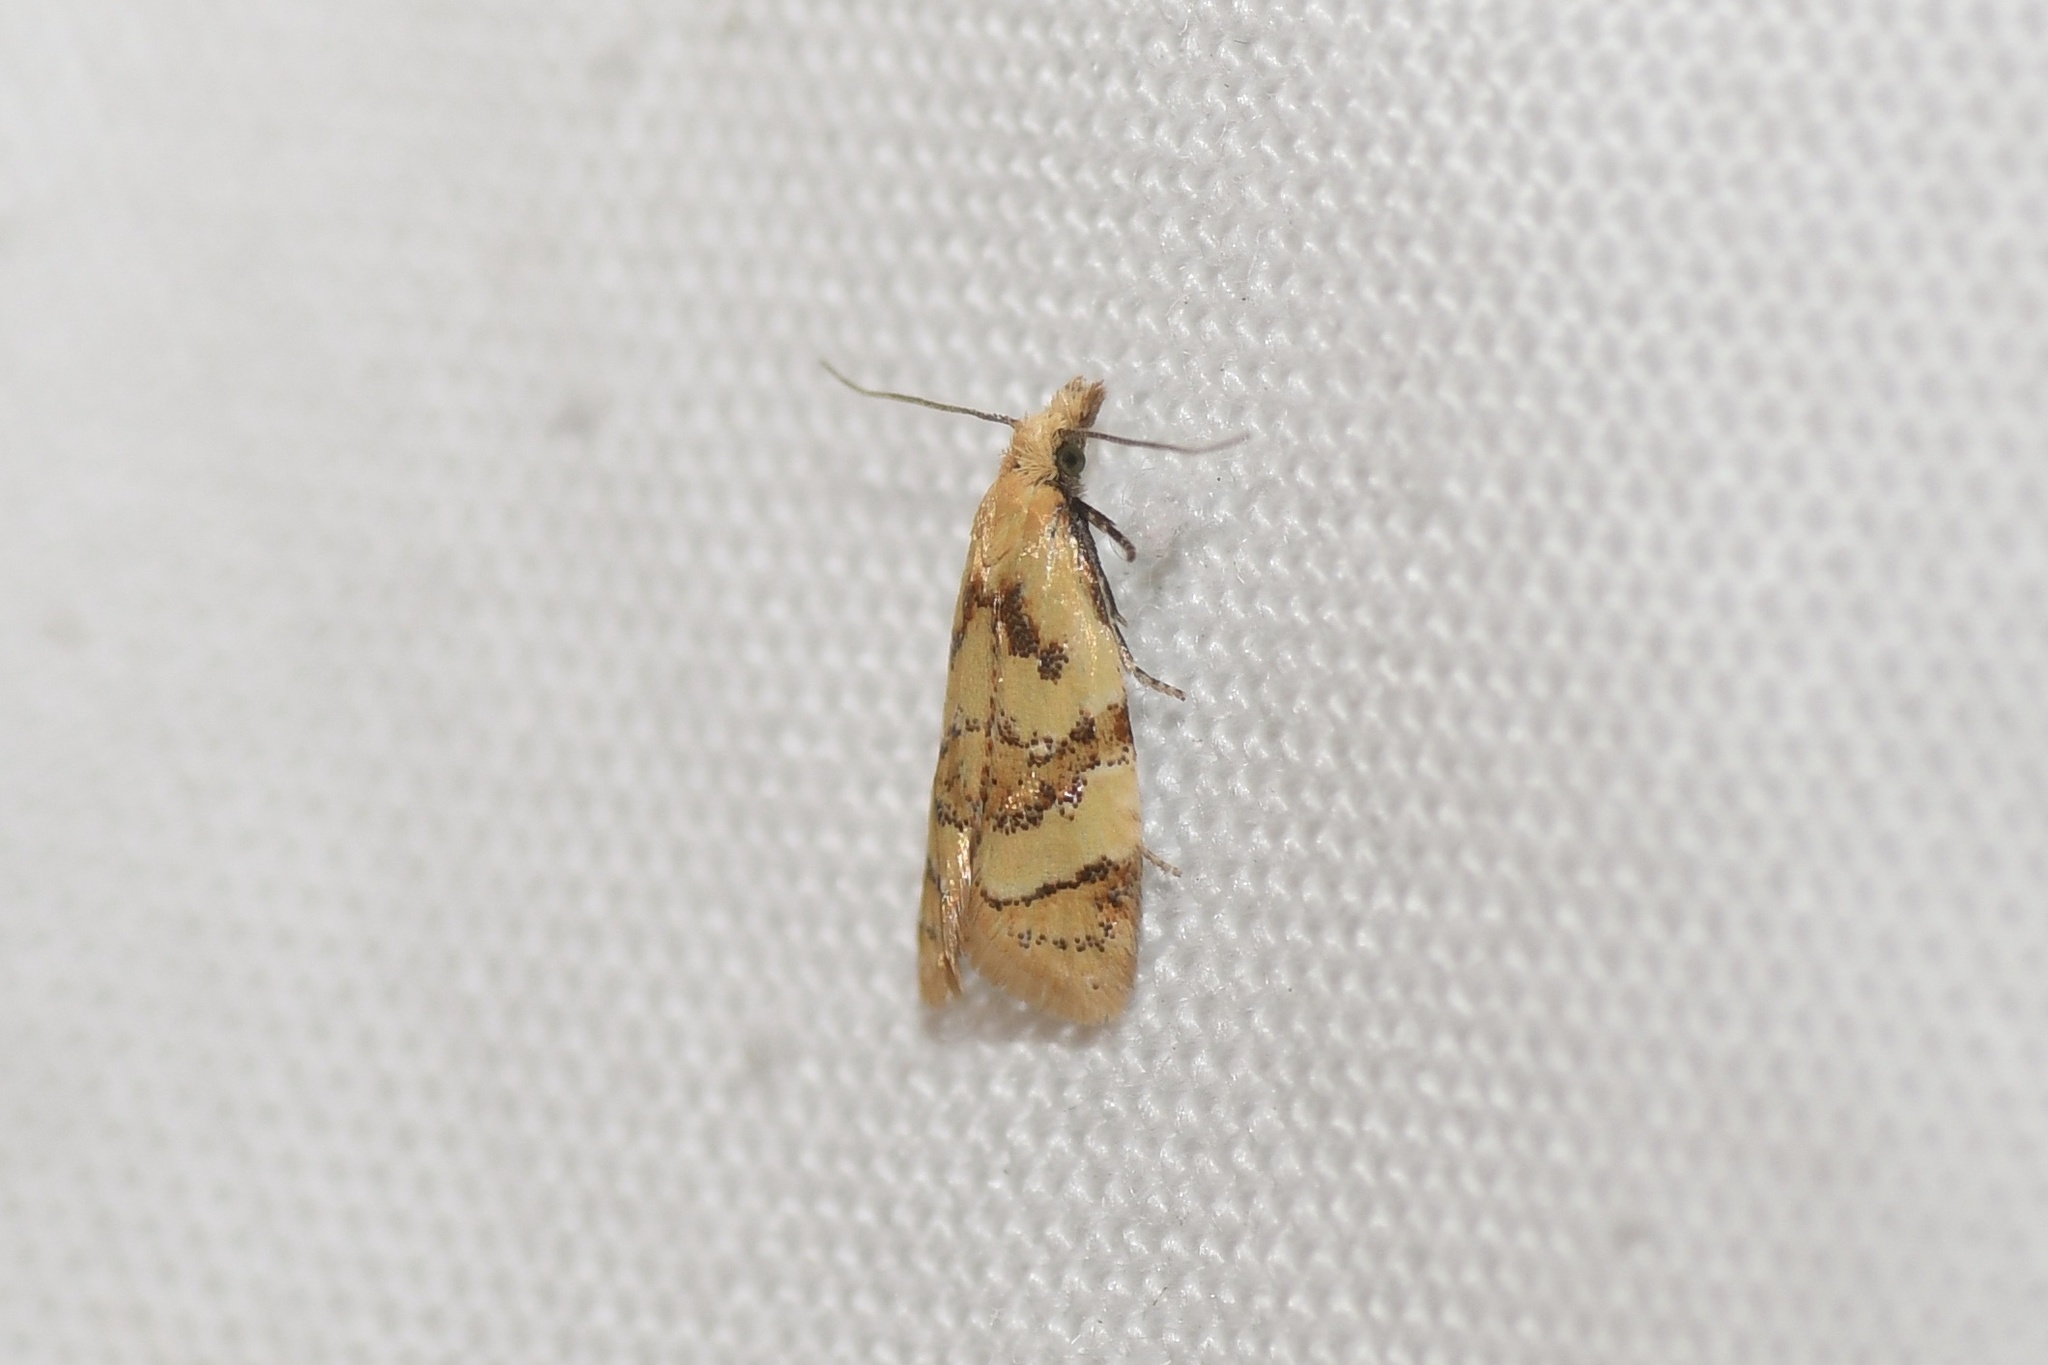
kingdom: Animalia
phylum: Arthropoda
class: Insecta
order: Lepidoptera
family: Tortricidae
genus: Phtheochroa
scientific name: Phtheochroa vitellinana
